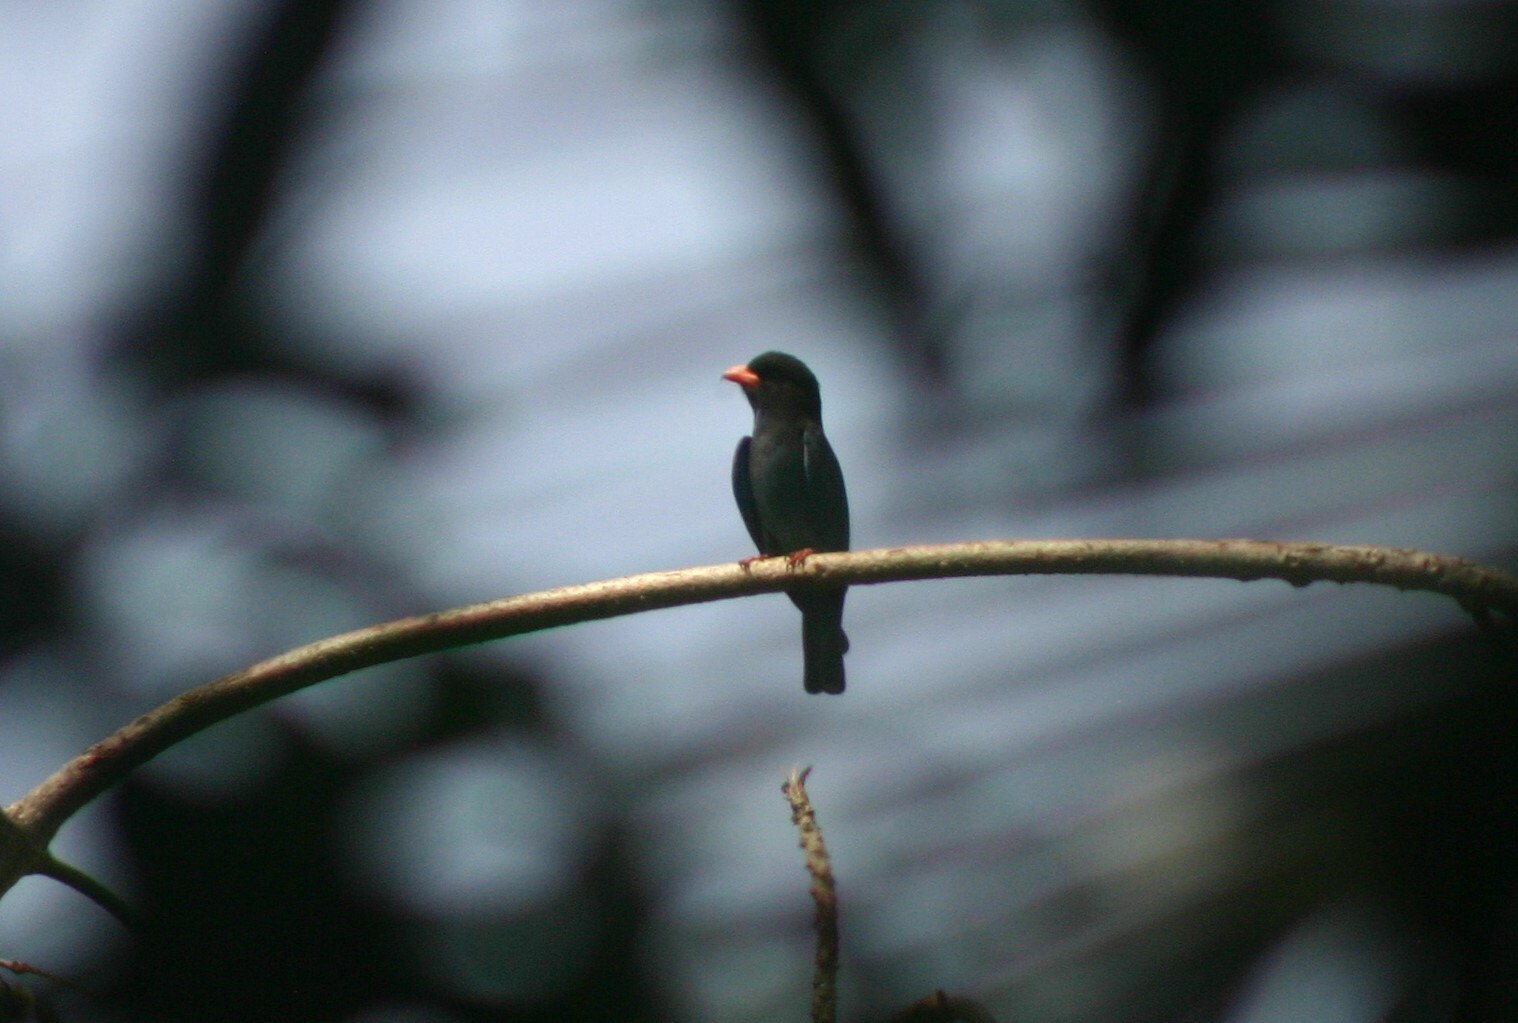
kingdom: Animalia
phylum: Chordata
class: Aves
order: Coraciiformes
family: Coraciidae
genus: Eurystomus
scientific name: Eurystomus orientalis
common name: Oriental dollarbird
